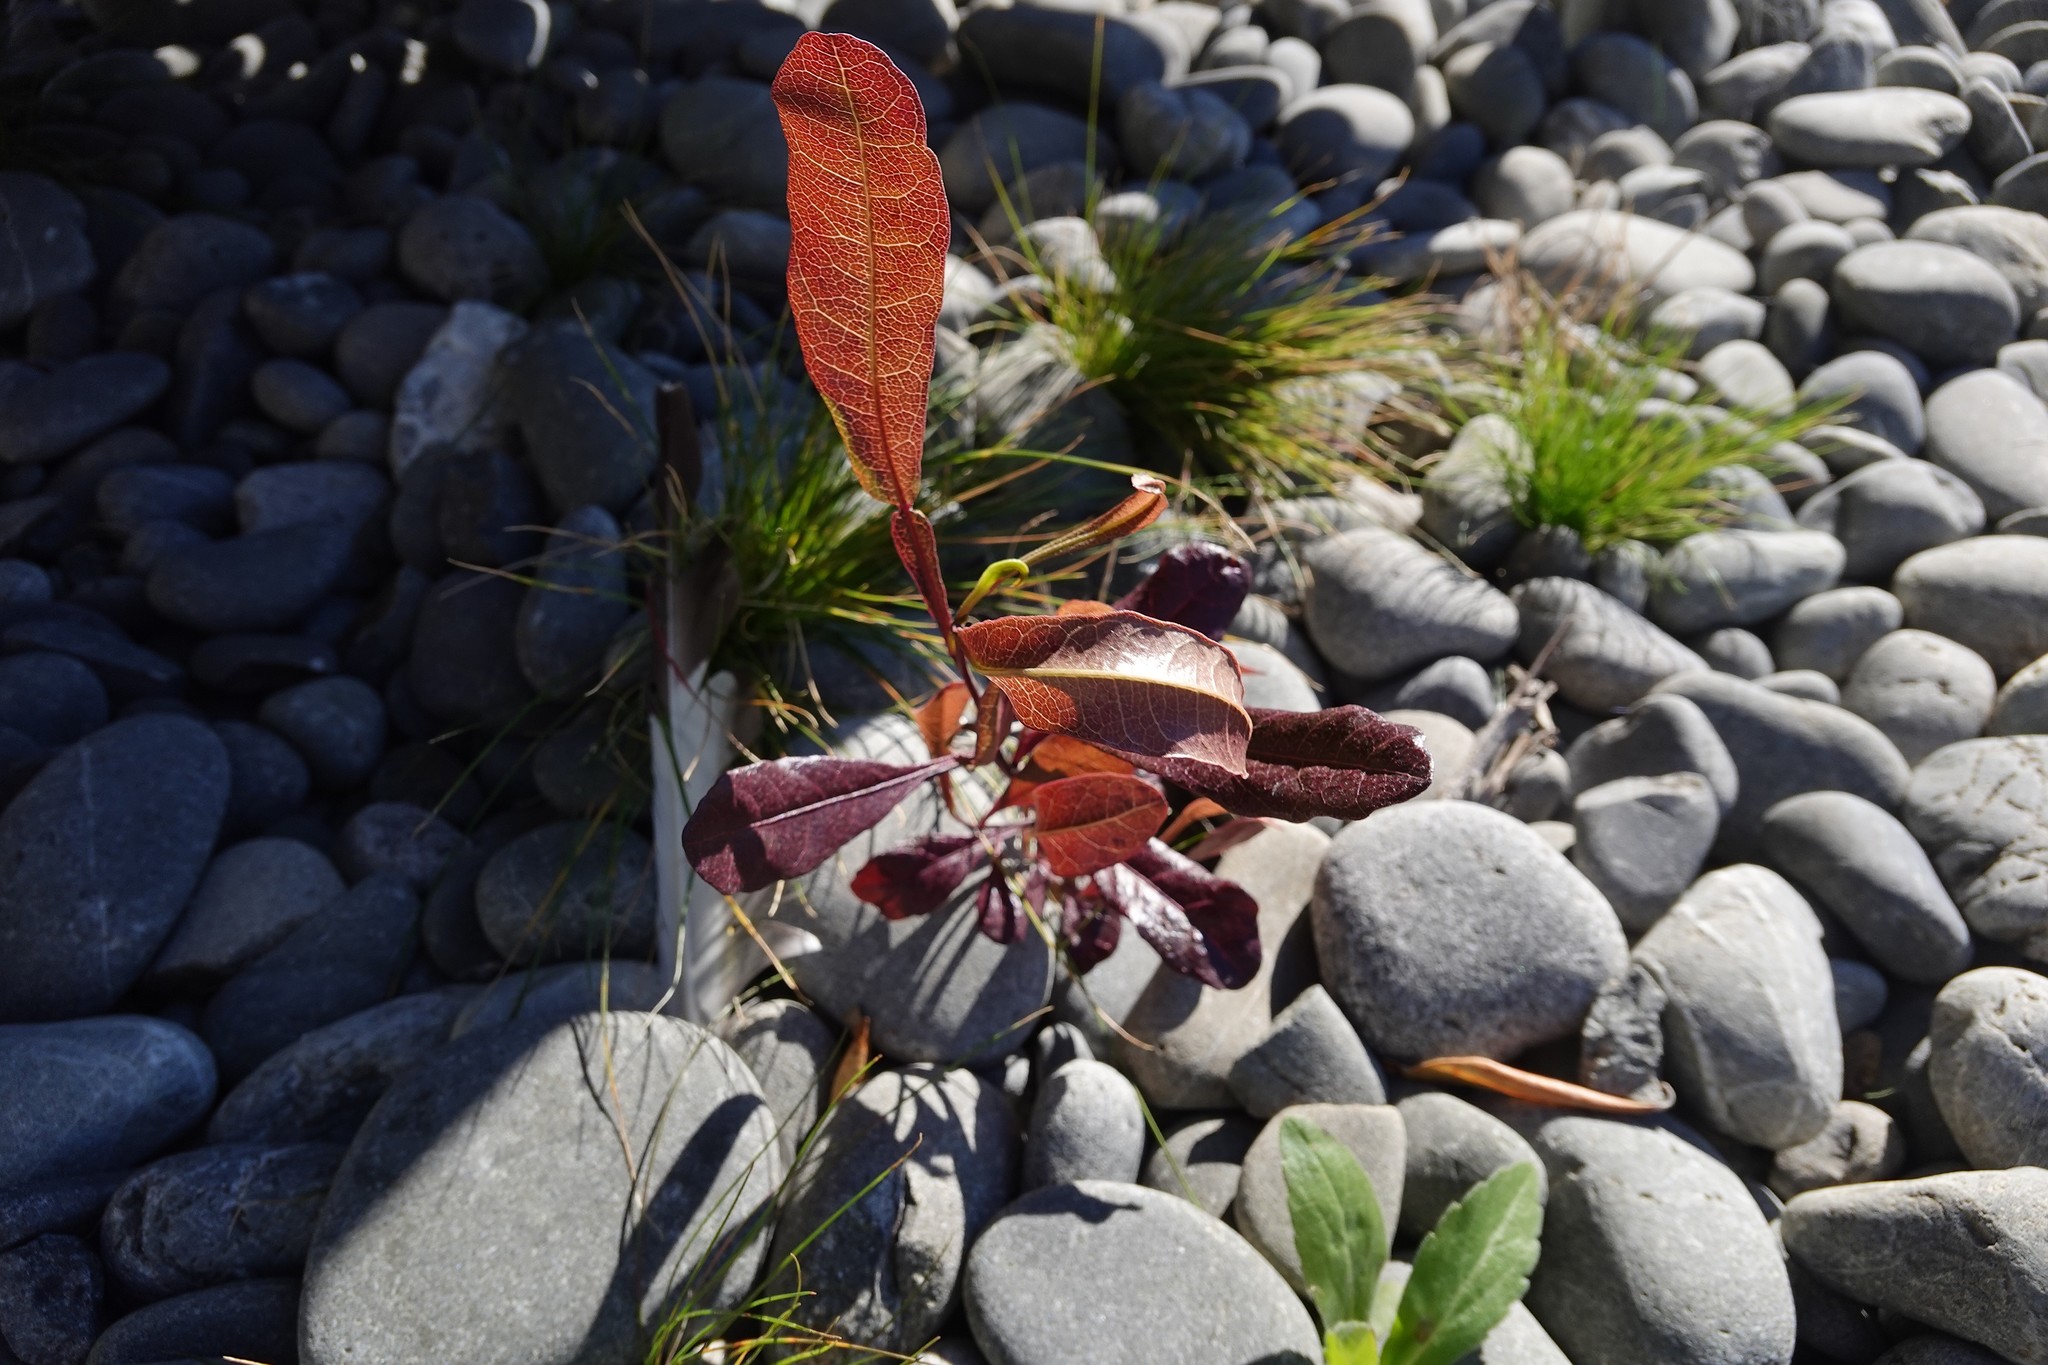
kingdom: Plantae
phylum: Tracheophyta
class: Magnoliopsida
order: Sapindales
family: Sapindaceae
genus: Dodonaea
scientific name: Dodonaea viscosa
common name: Hopbush
